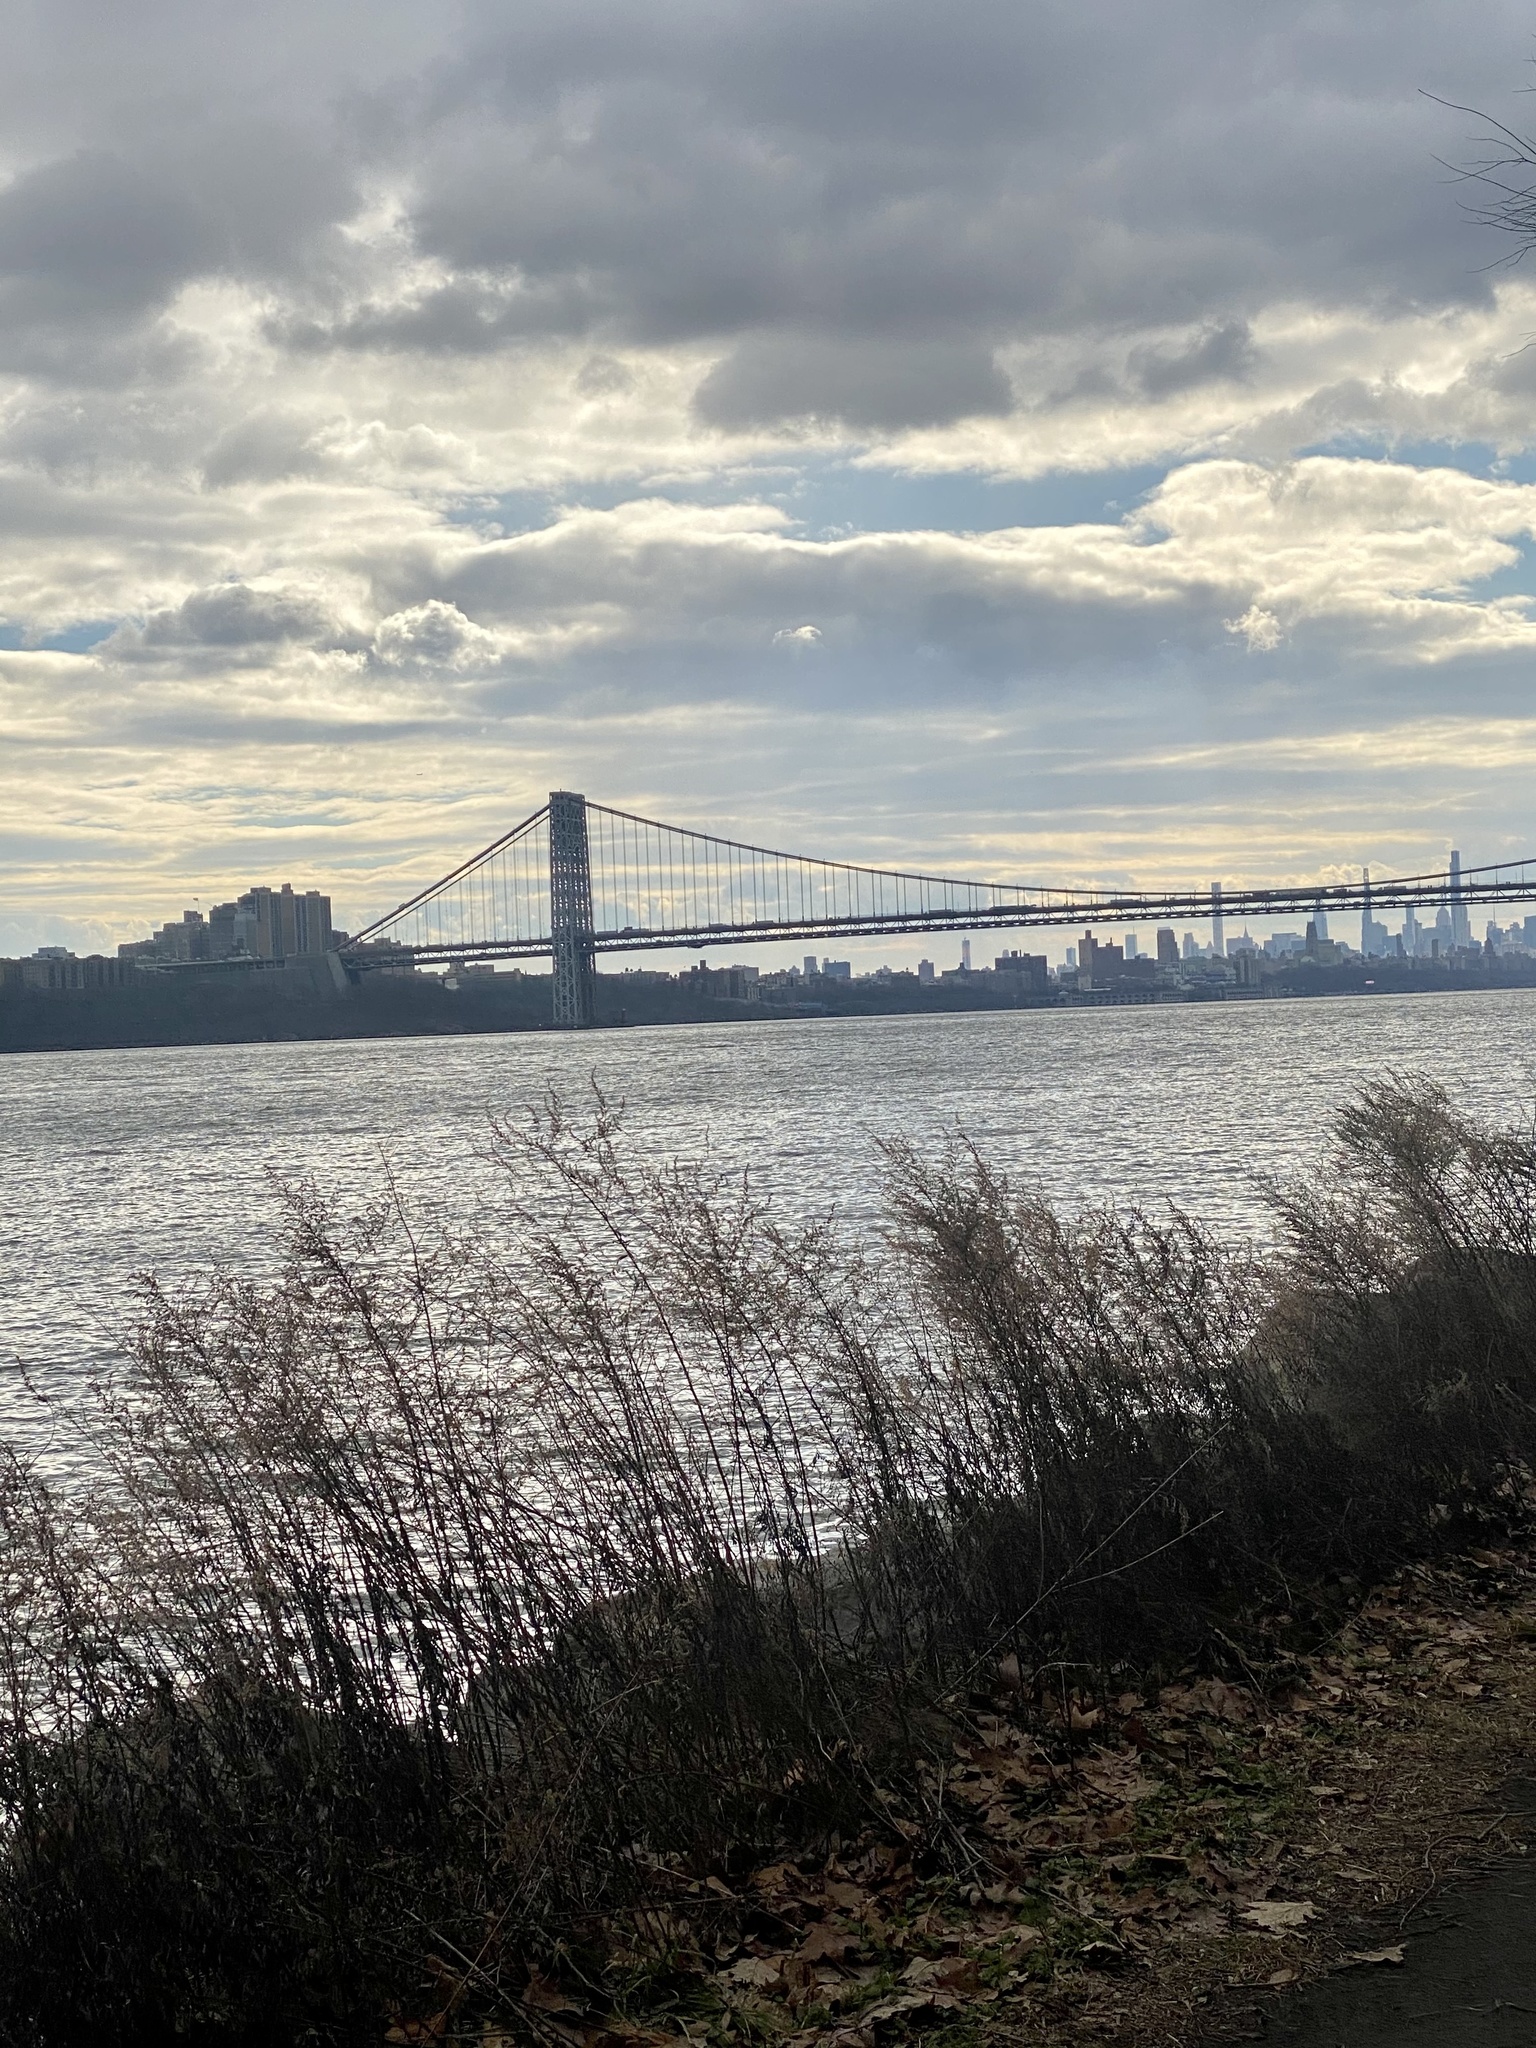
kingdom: Plantae
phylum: Tracheophyta
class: Magnoliopsida
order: Lamiales
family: Plantaginaceae
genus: Plantago
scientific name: Plantago lanceolata
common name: Ribwort plantain
